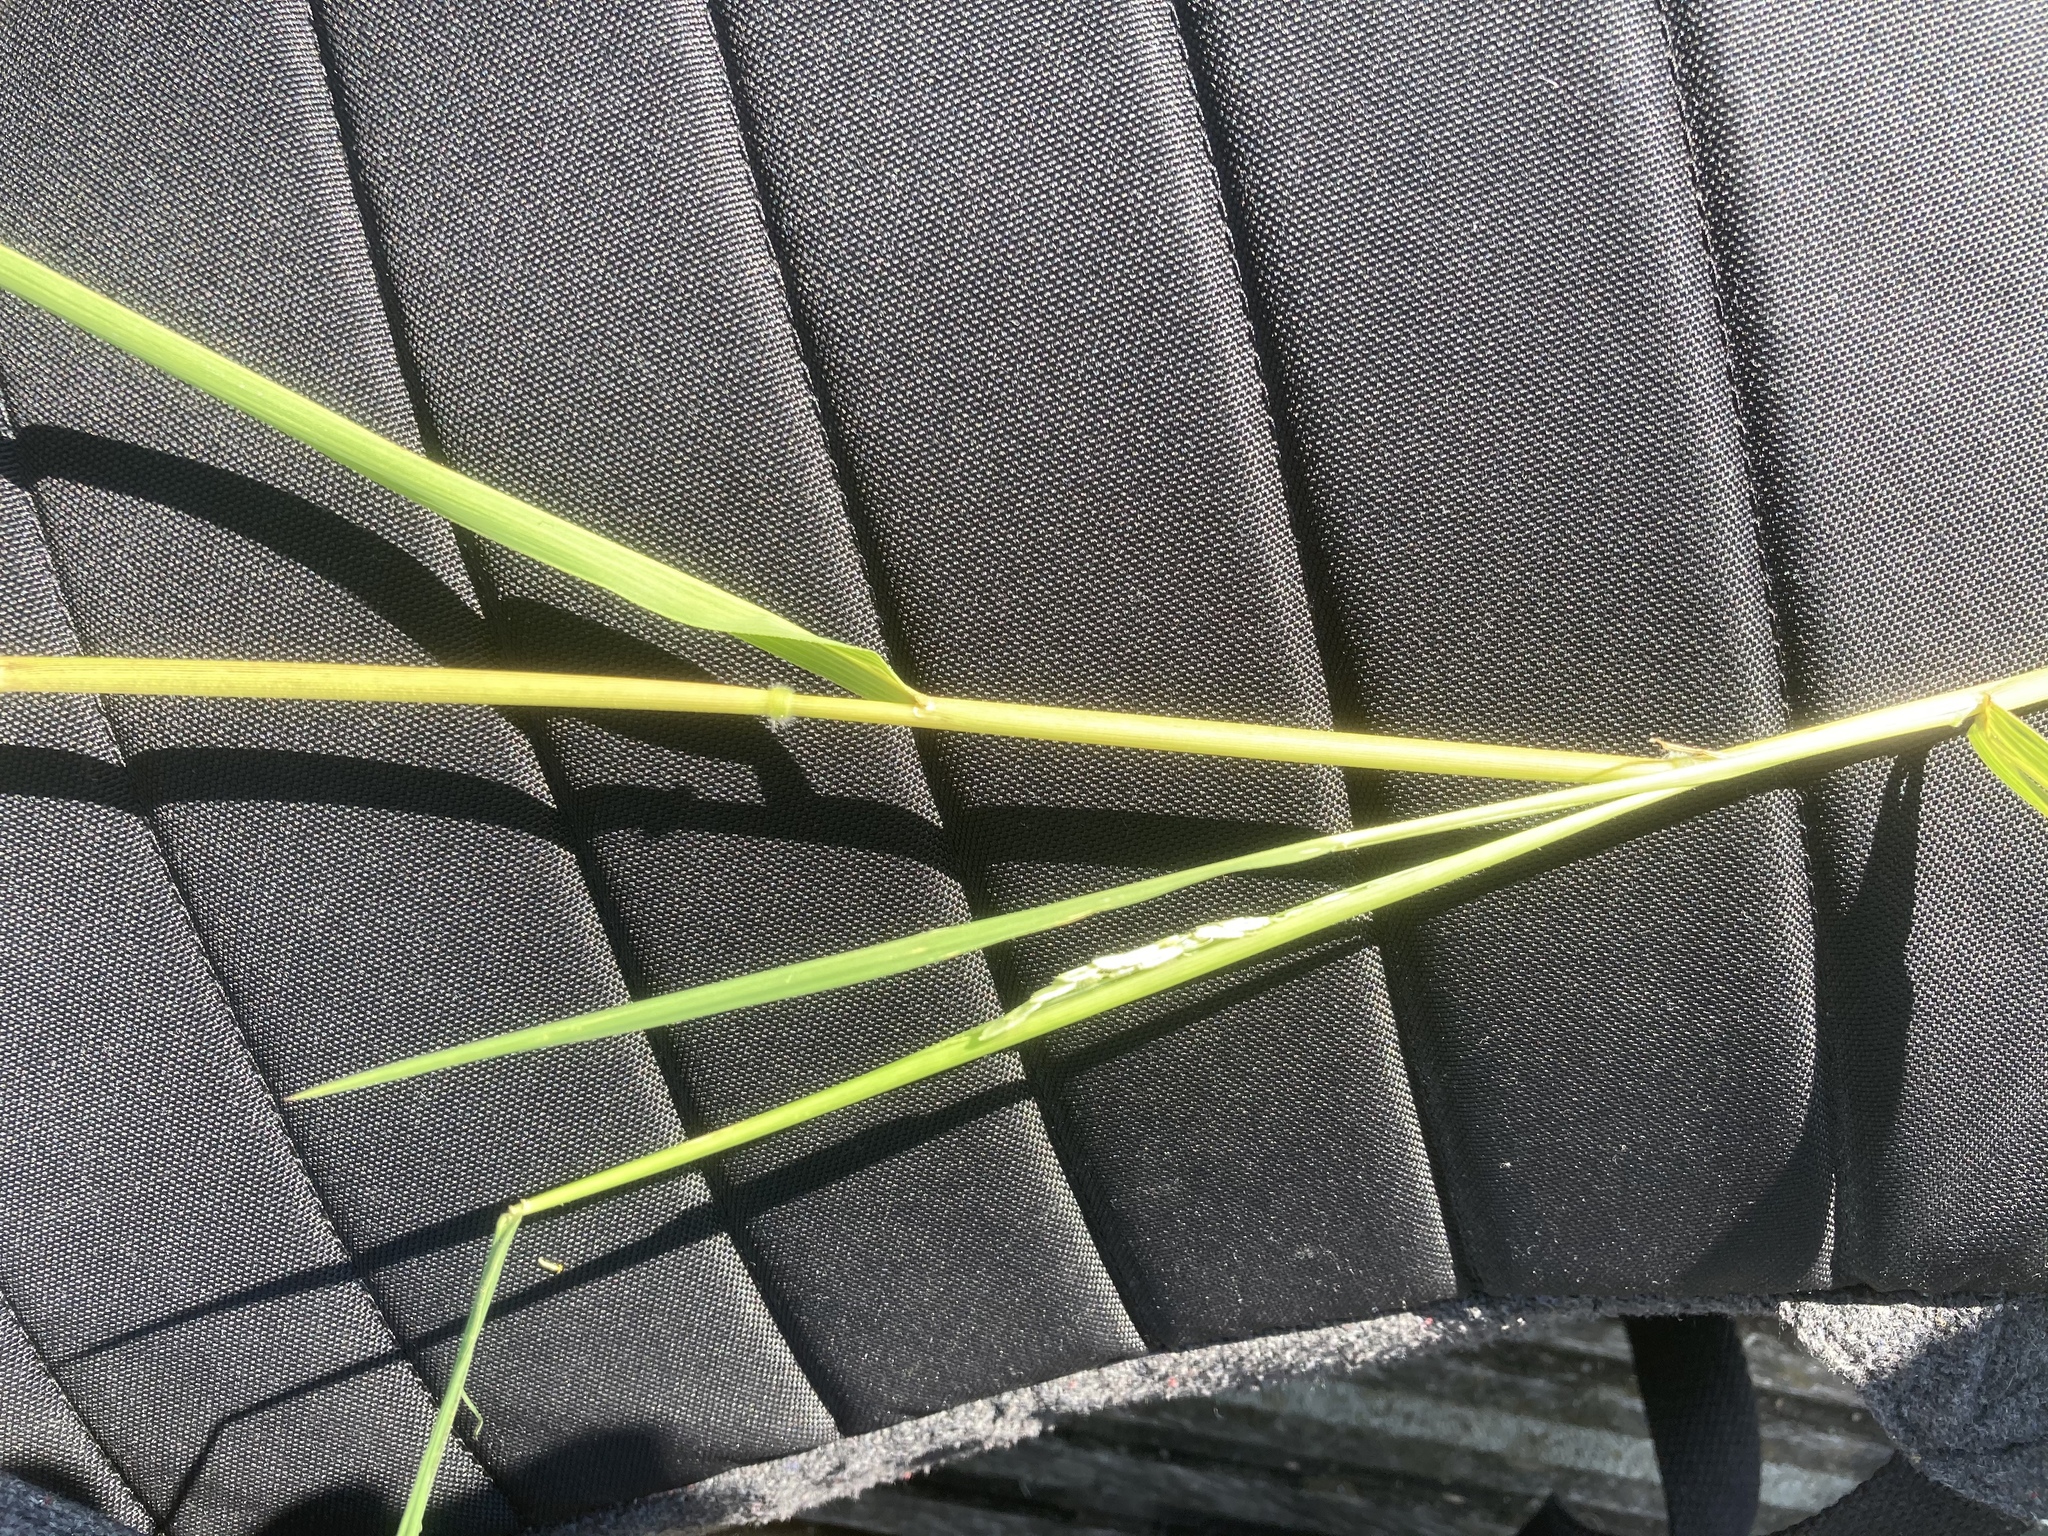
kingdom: Plantae
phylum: Tracheophyta
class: Liliopsida
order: Poales
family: Poaceae
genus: Leersia
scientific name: Leersia oryzoides
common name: Cut-grass
